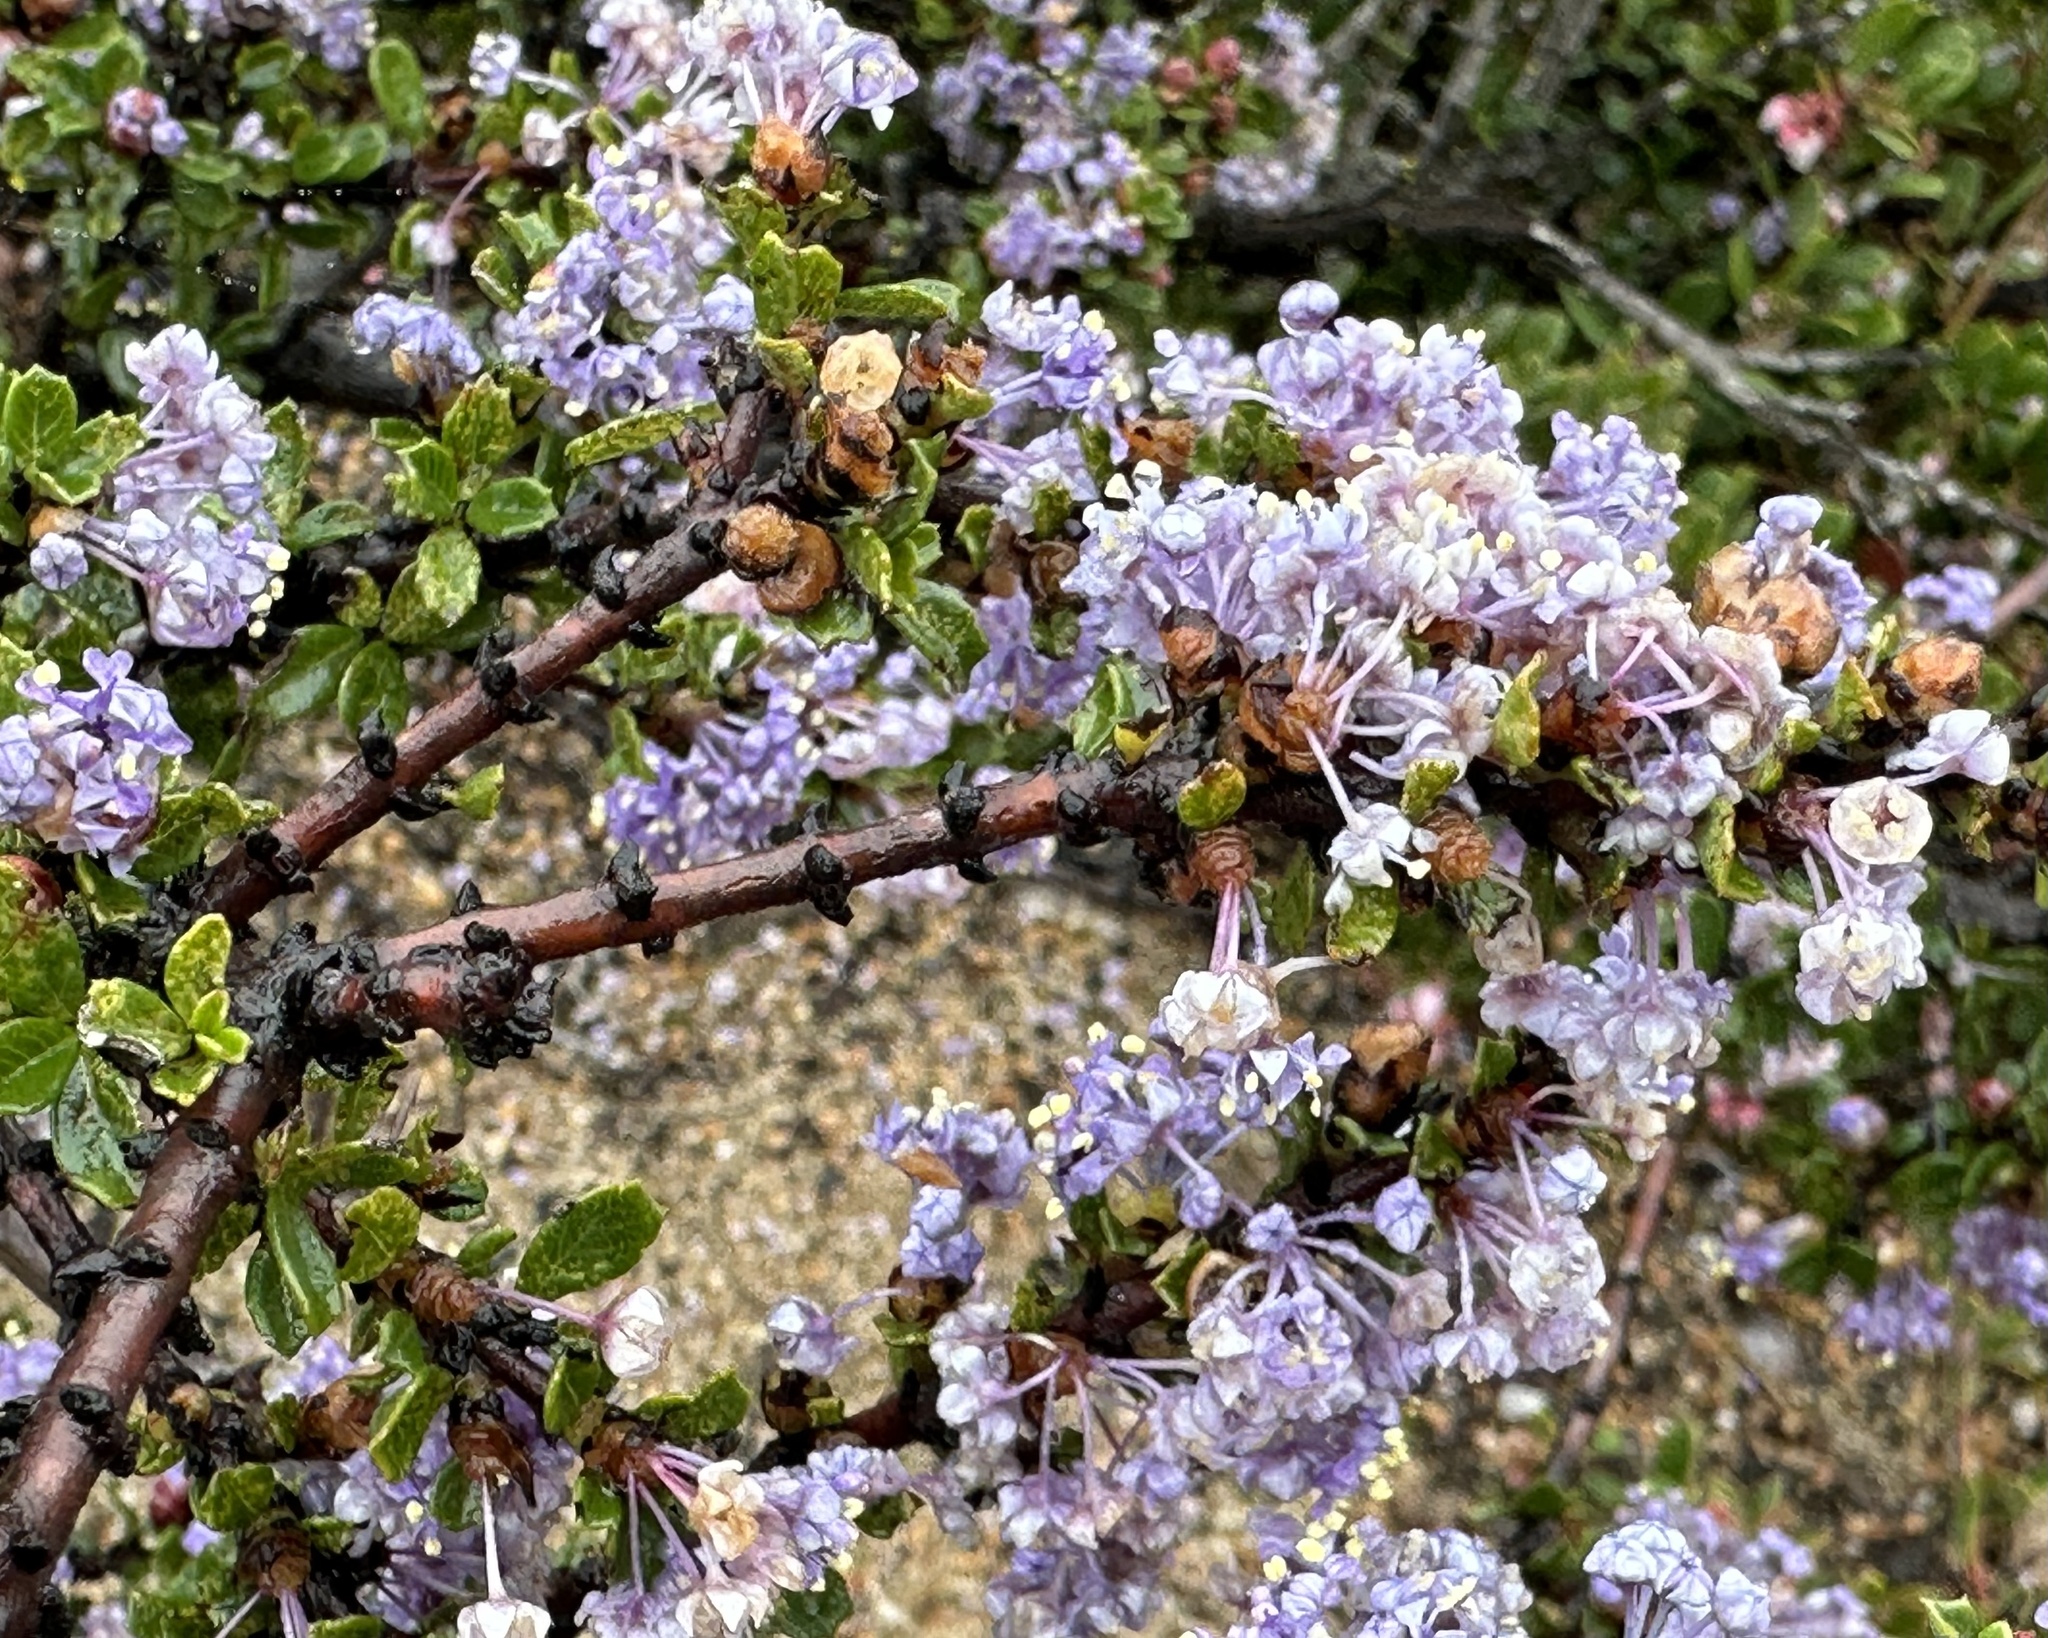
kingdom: Plantae
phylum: Tracheophyta
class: Magnoliopsida
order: Rosales
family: Rhamnaceae
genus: Ceanothus
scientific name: Ceanothus cuneatus
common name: Cuneate ceanothus
